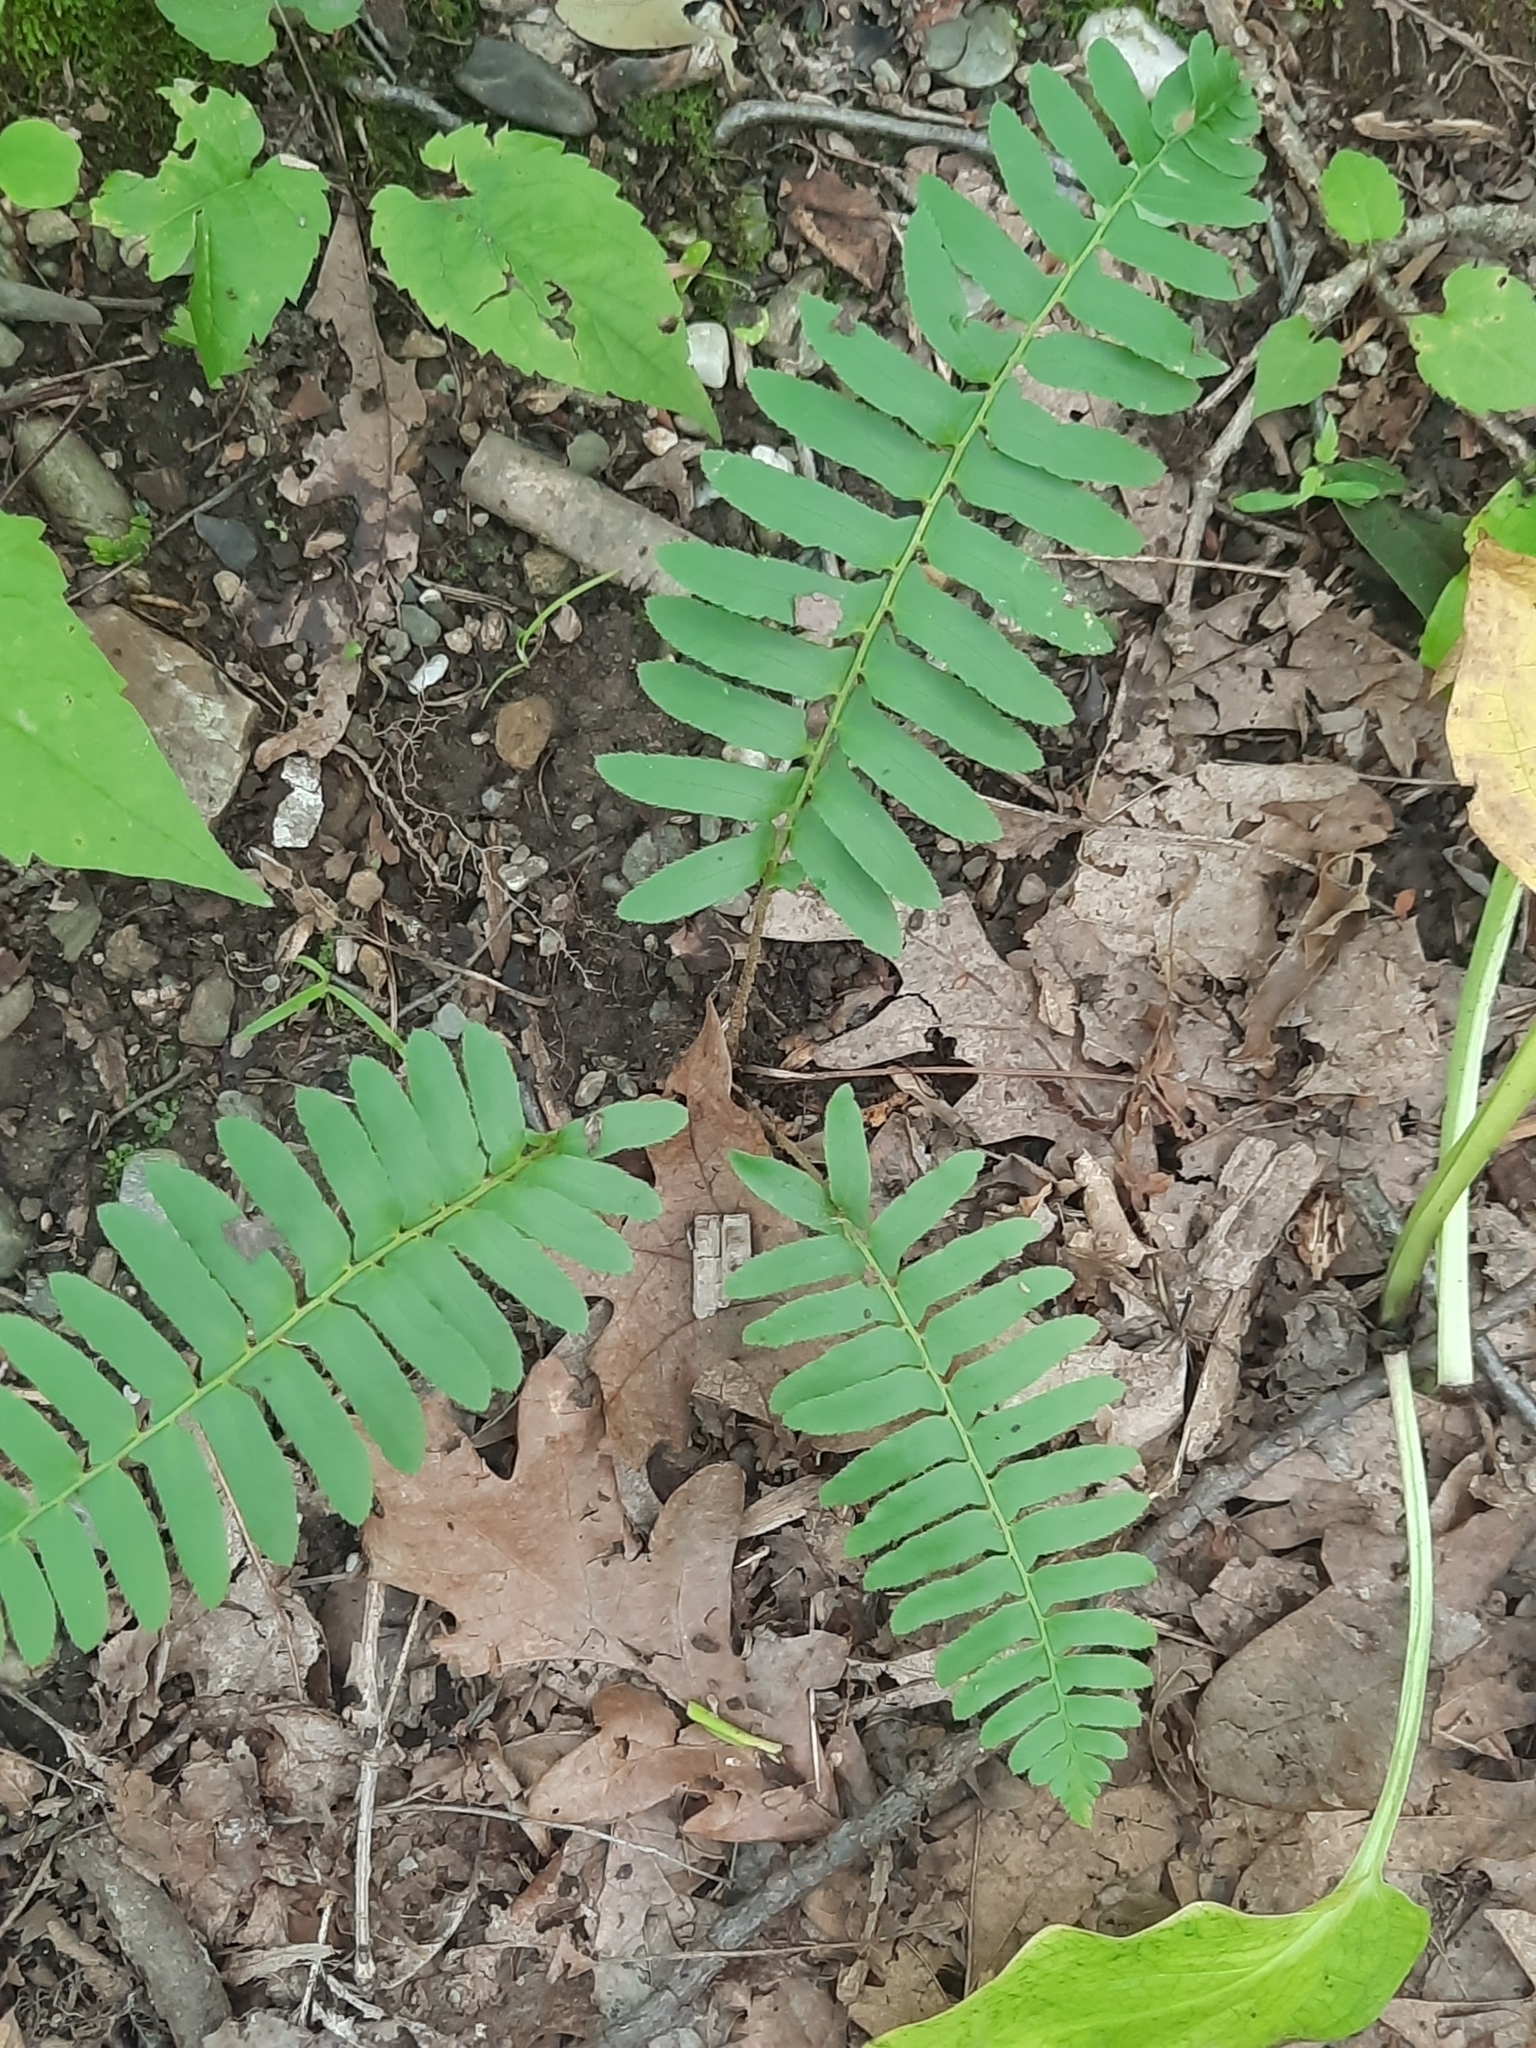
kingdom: Plantae
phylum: Tracheophyta
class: Polypodiopsida
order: Polypodiales
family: Dryopteridaceae
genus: Polystichum
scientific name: Polystichum acrostichoides
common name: Christmas fern
